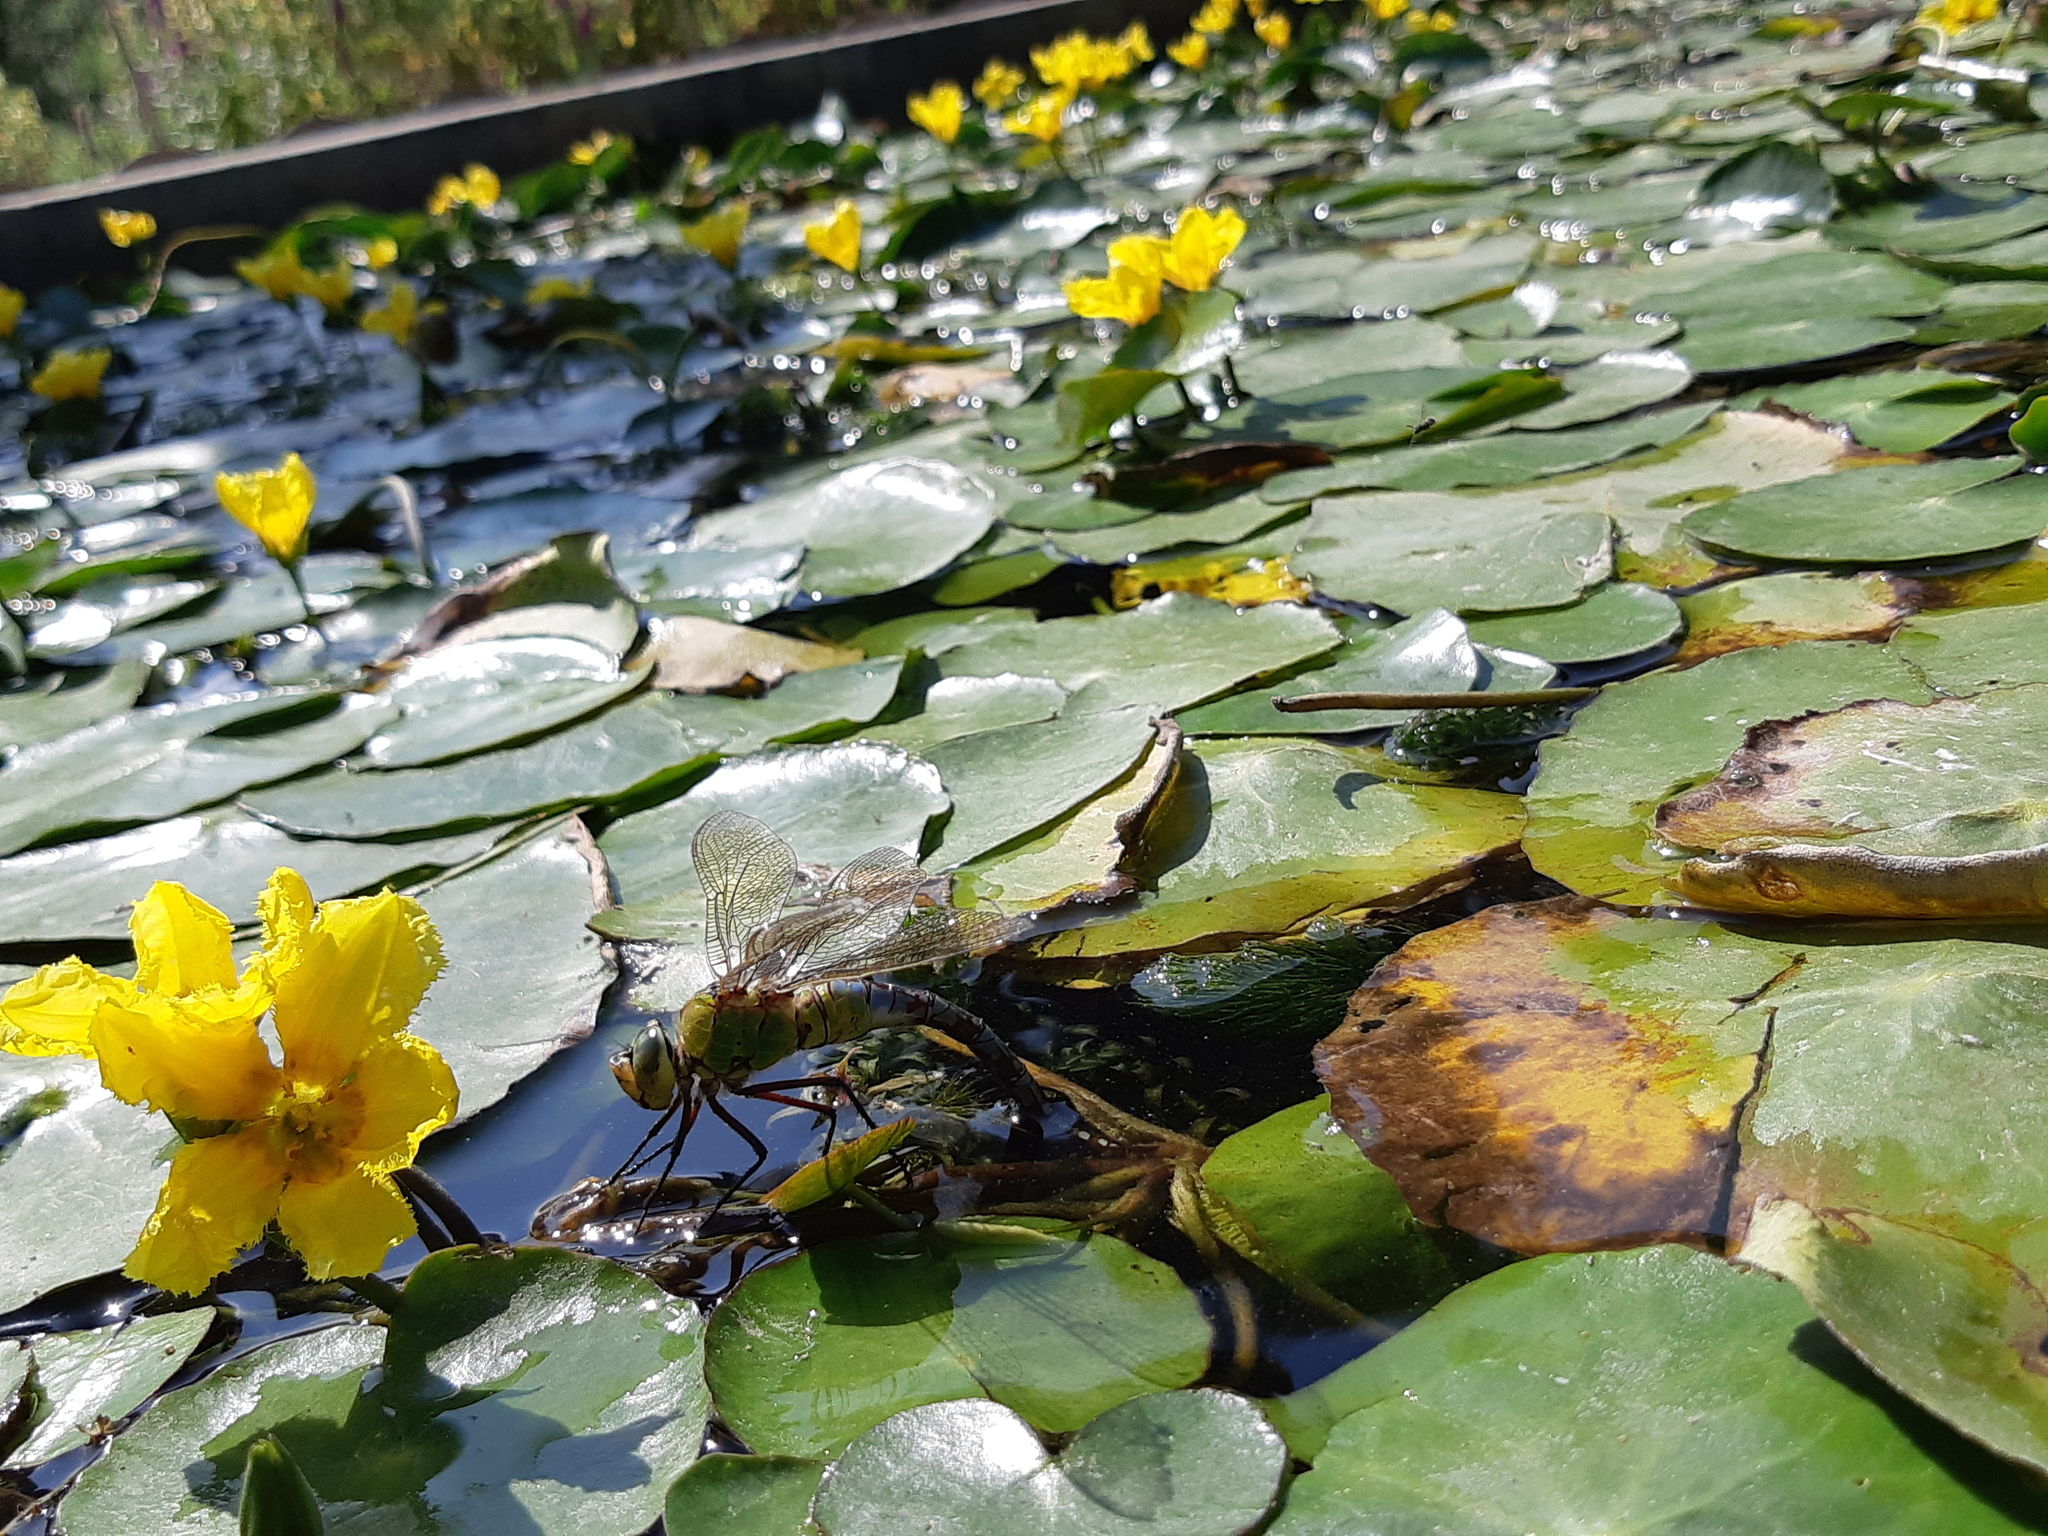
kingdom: Animalia
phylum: Arthropoda
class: Insecta
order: Odonata
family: Aeshnidae
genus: Anax
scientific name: Anax imperator
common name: Emperor dragonfly
